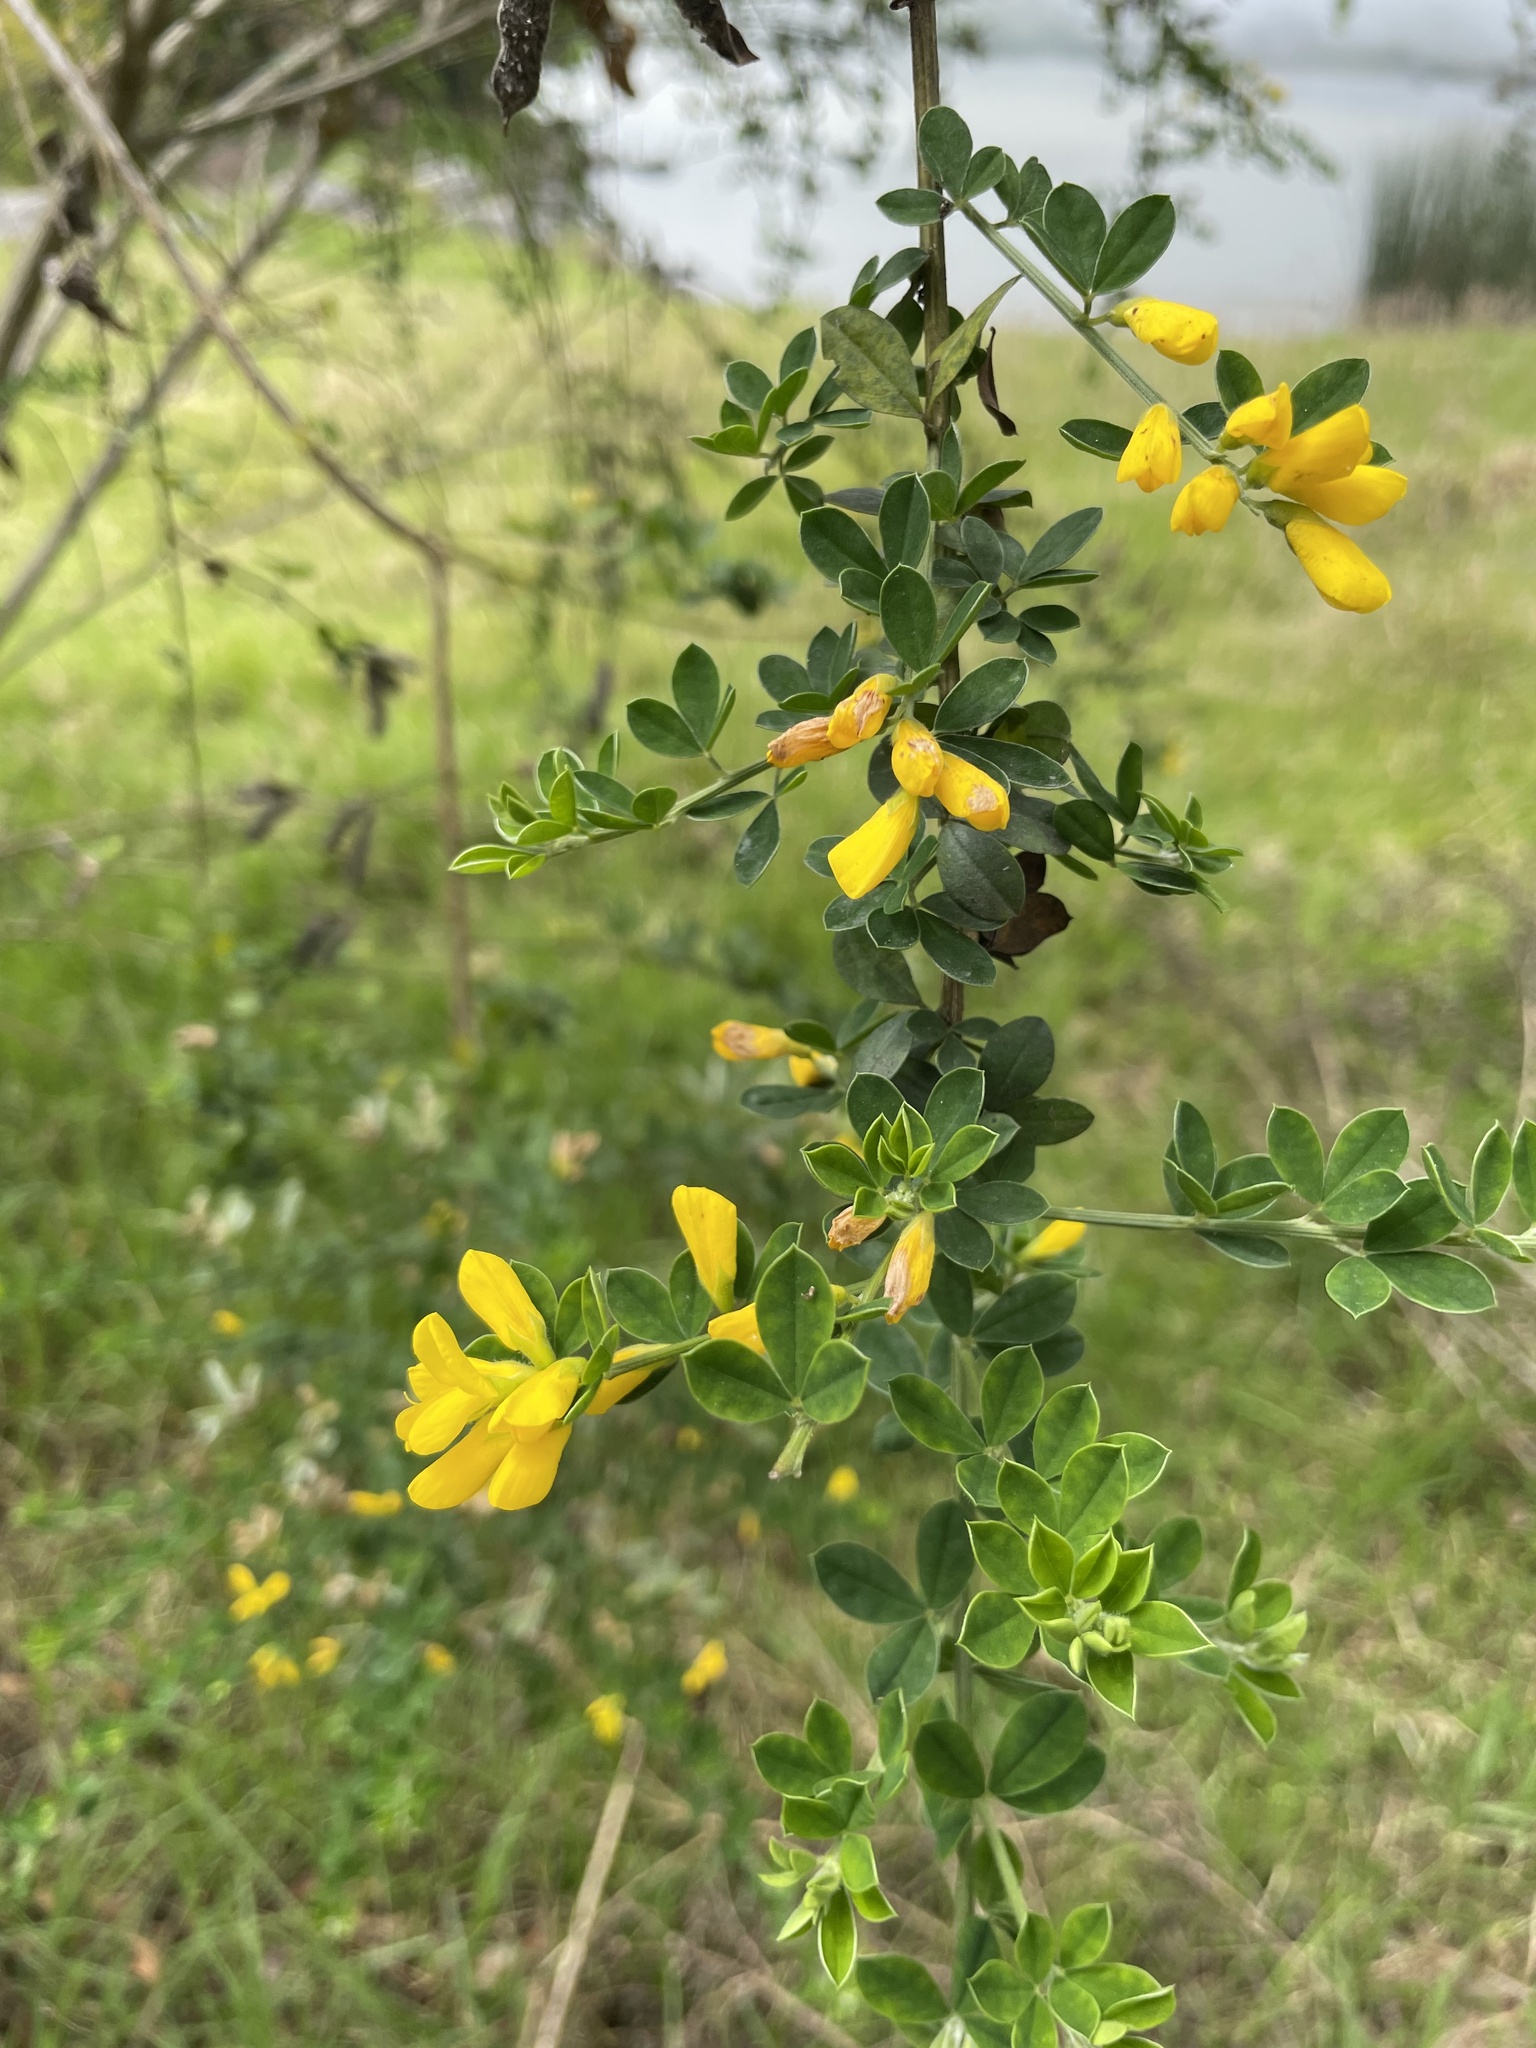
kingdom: Plantae
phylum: Tracheophyta
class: Magnoliopsida
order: Fabales
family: Fabaceae
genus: Genista
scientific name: Genista monspessulana
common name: Montpellier broom
